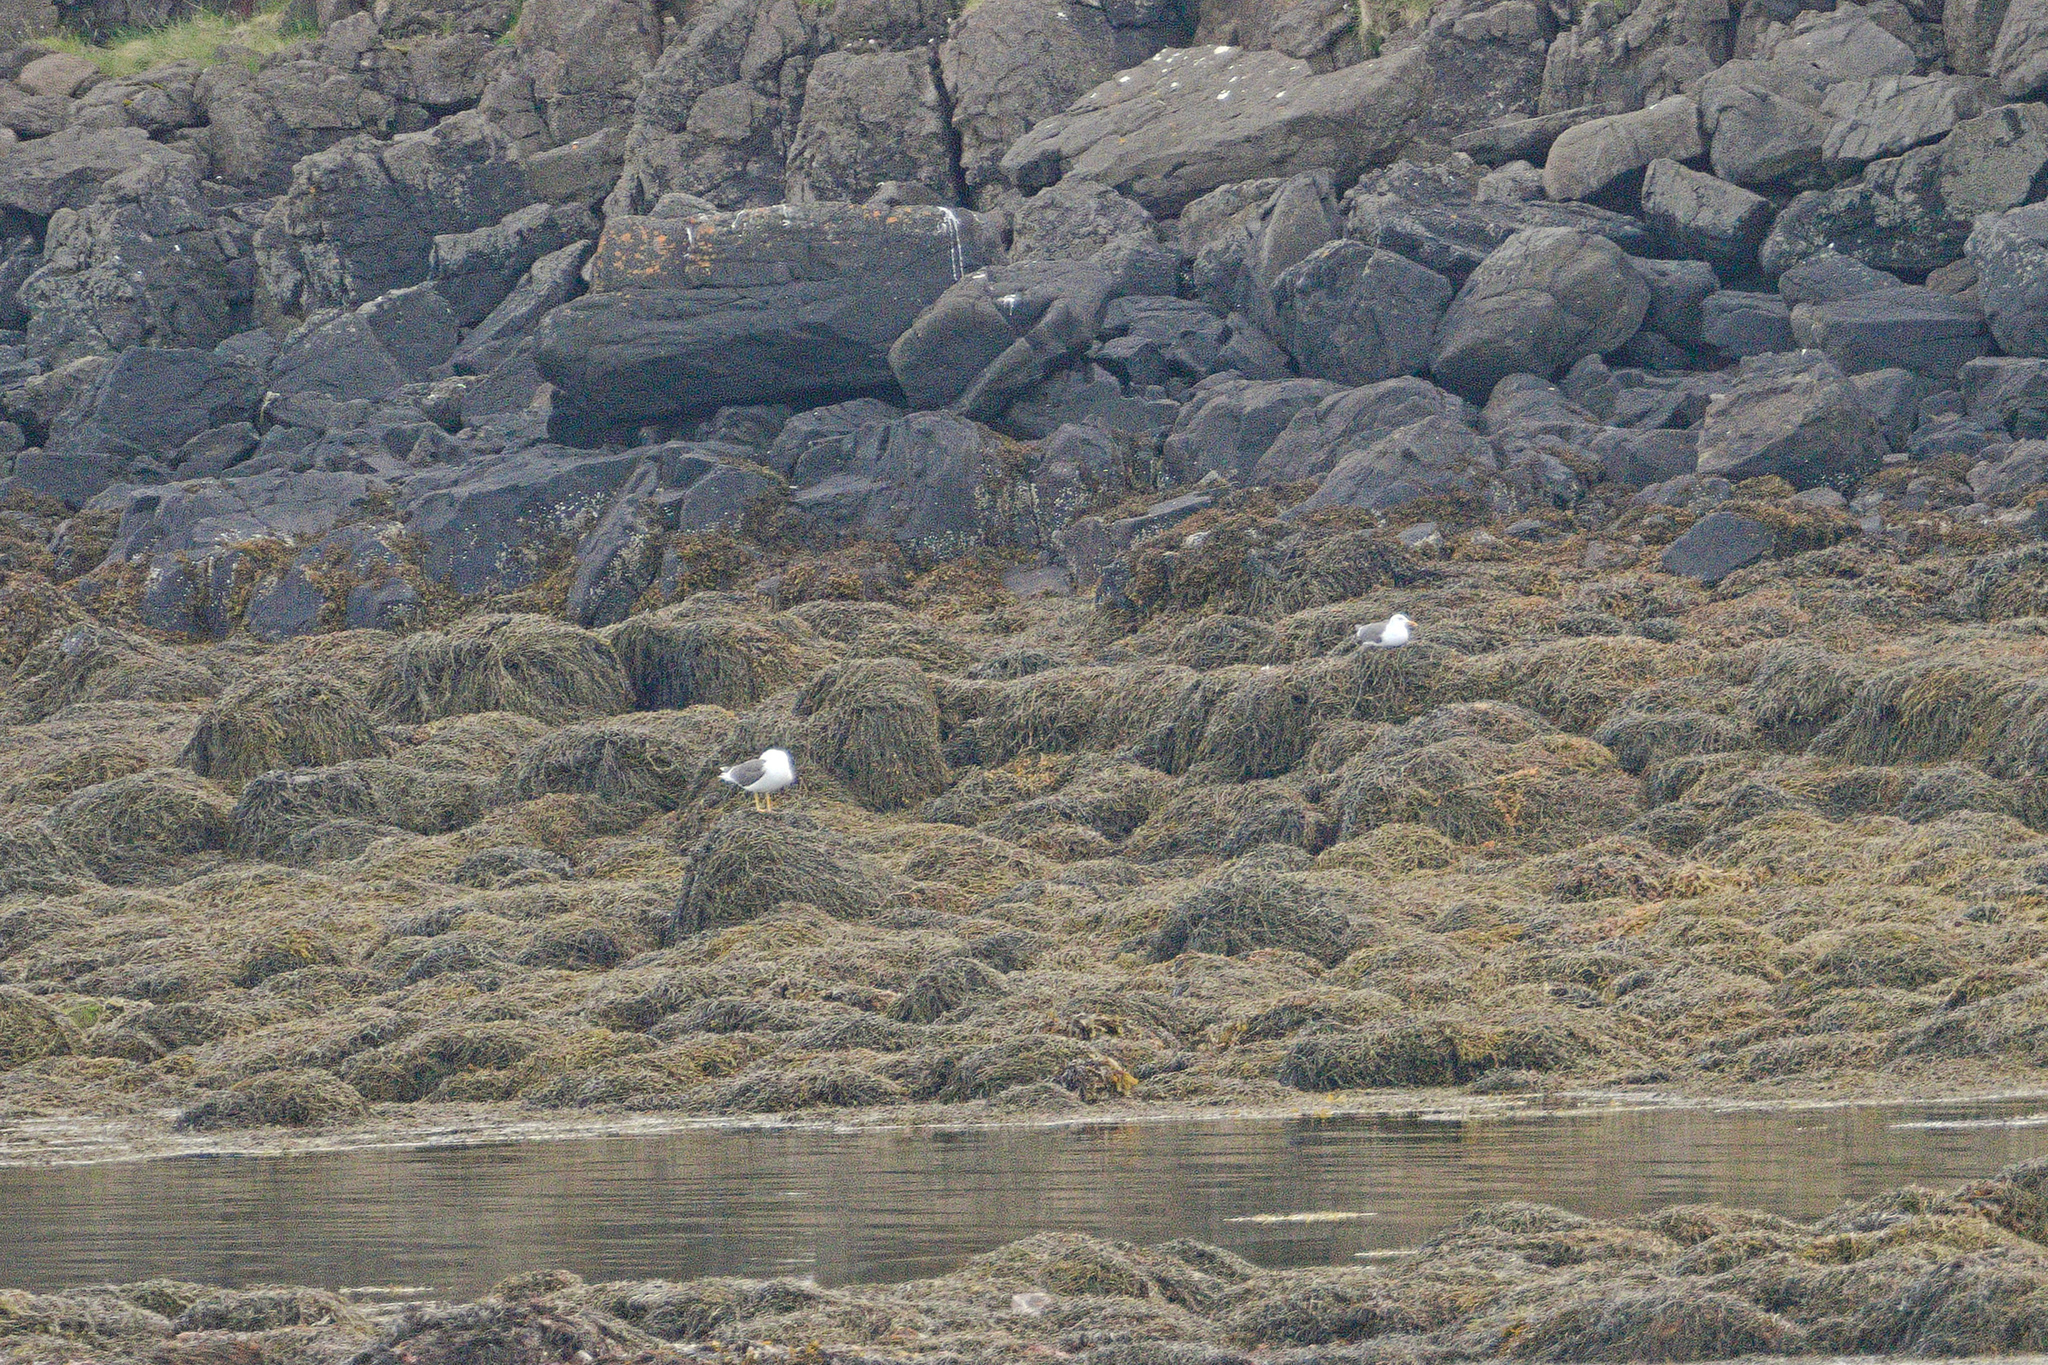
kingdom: Animalia
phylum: Chordata
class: Aves
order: Charadriiformes
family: Laridae
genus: Larus
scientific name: Larus fuscus
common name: Lesser black-backed gull
